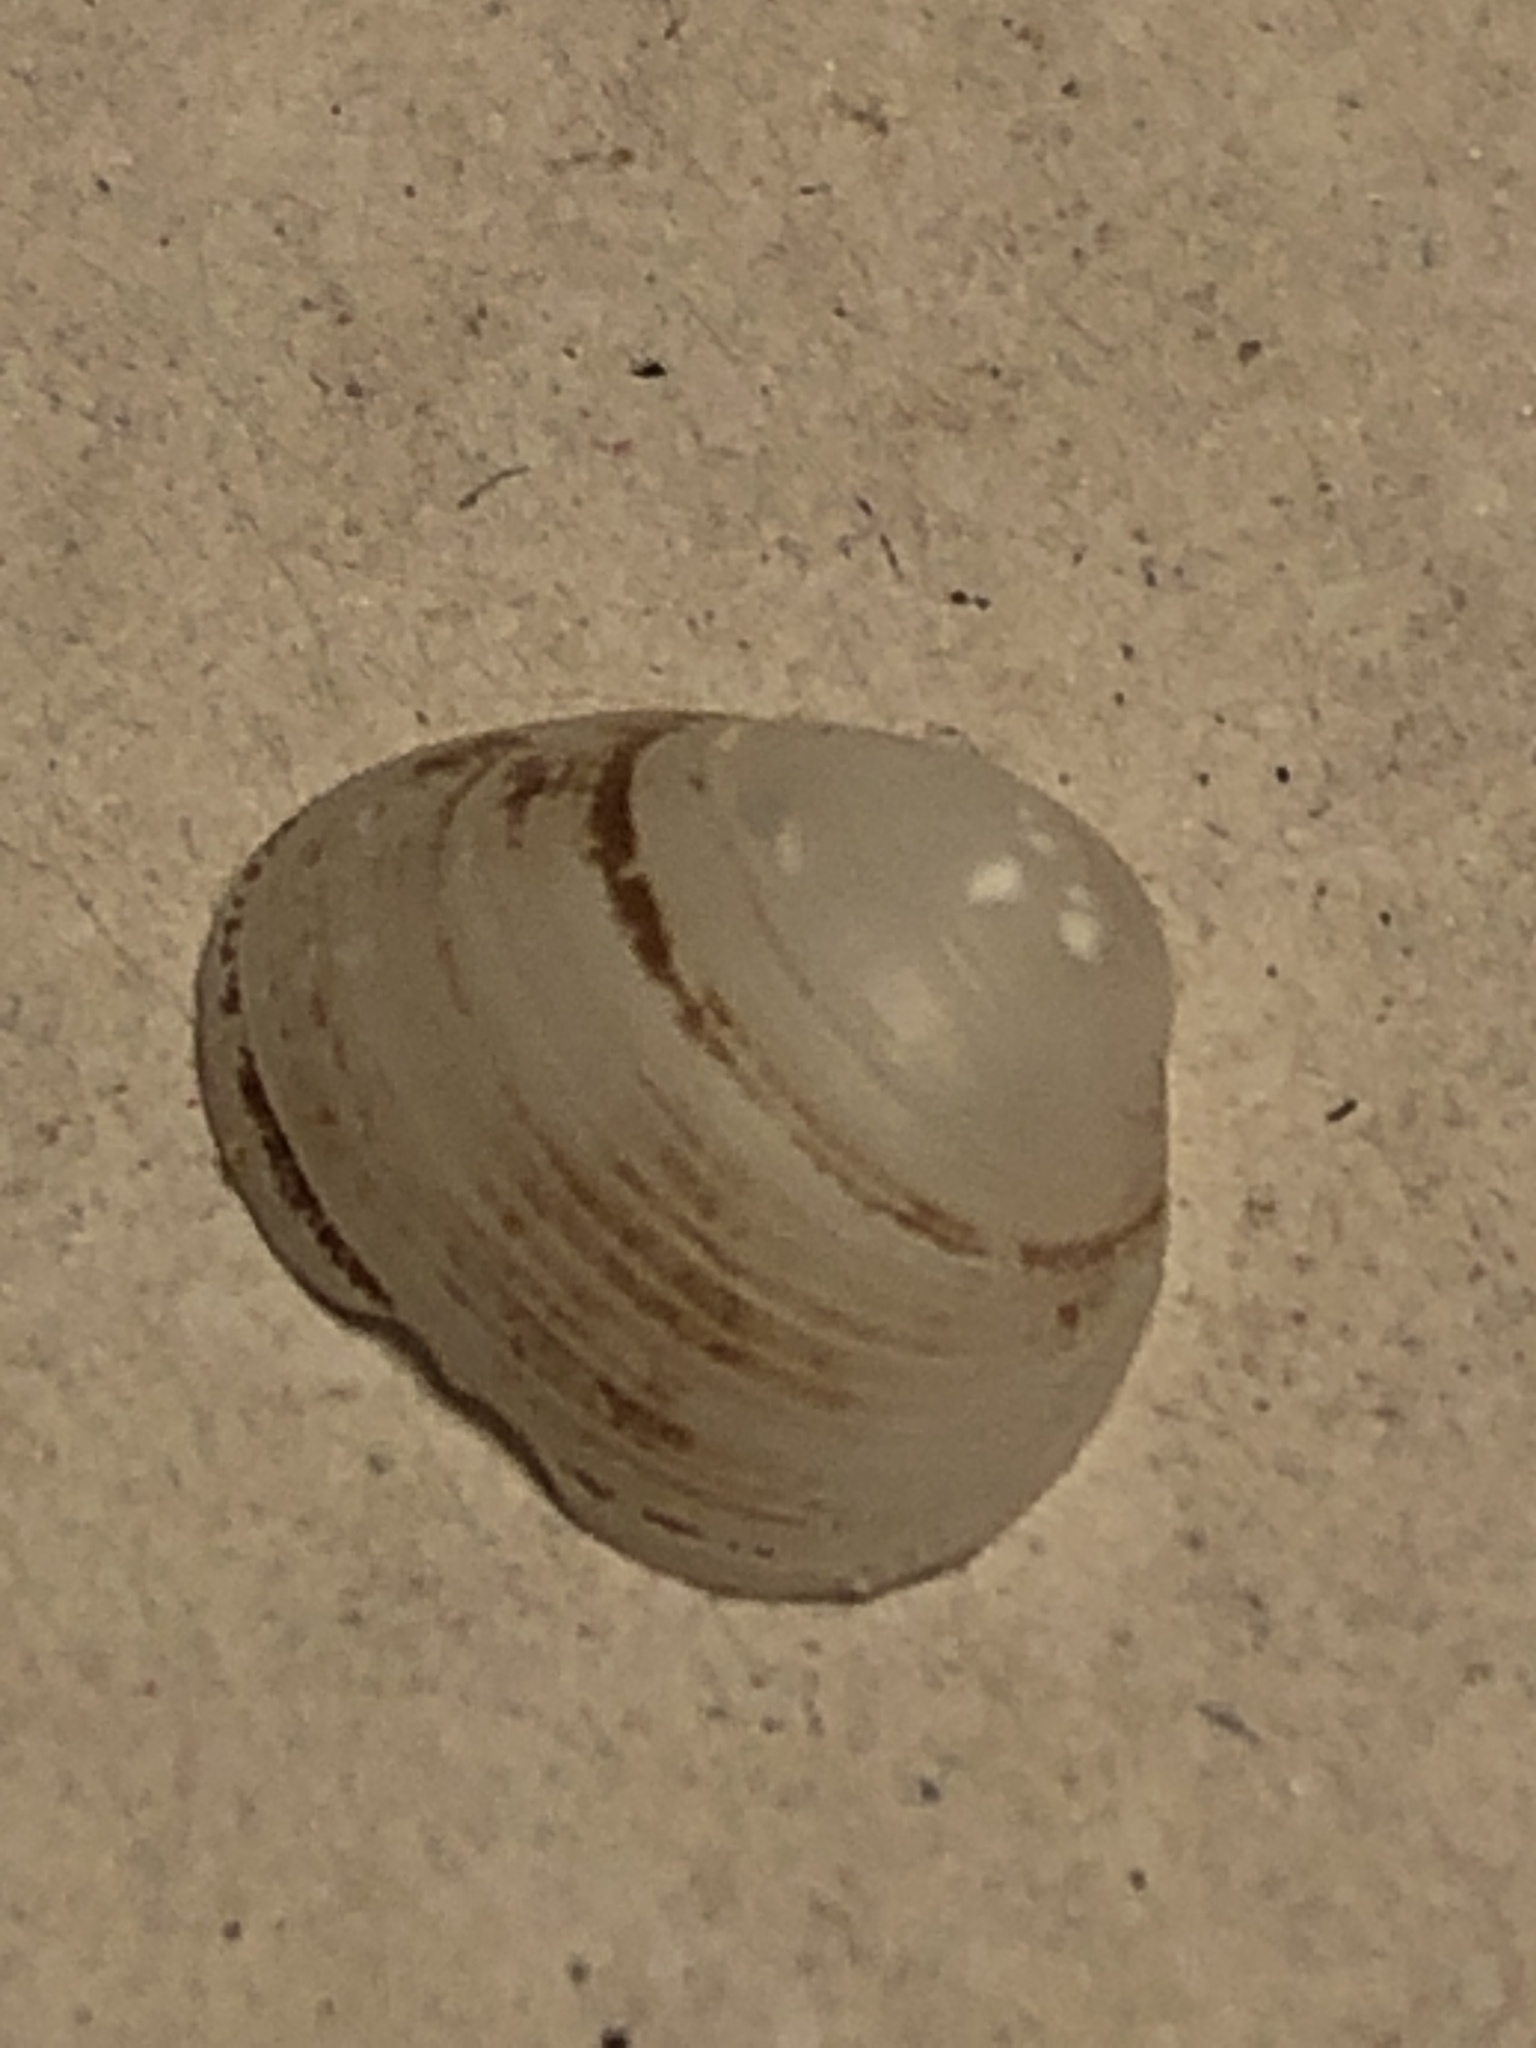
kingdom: Animalia
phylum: Mollusca
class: Bivalvia
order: Sphaeriida
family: Sphaeriidae
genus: Sphaerium
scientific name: Sphaerium striatinum
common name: Striated fingernailclam
